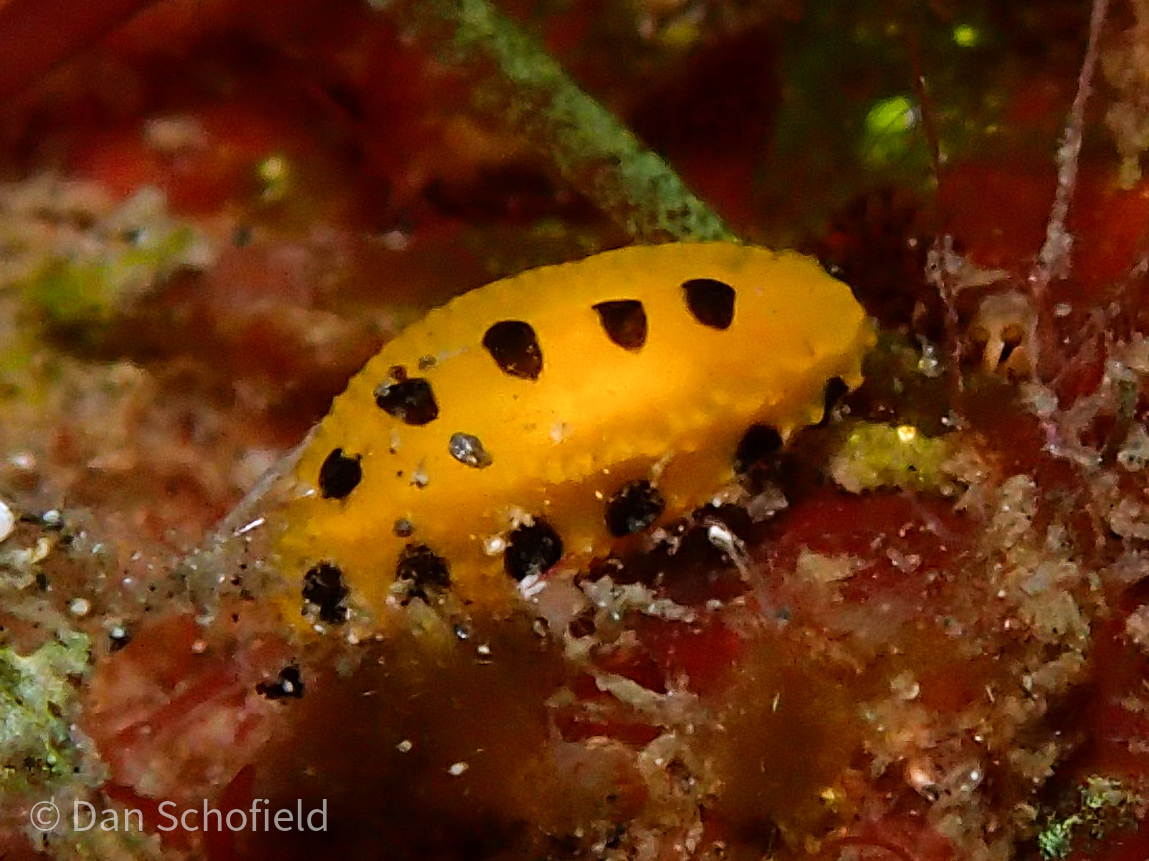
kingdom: Animalia
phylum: Mollusca
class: Gastropoda
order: Nudibranchia
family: Phyllidiidae
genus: Phyllidia
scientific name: Phyllidia polkadotsa
